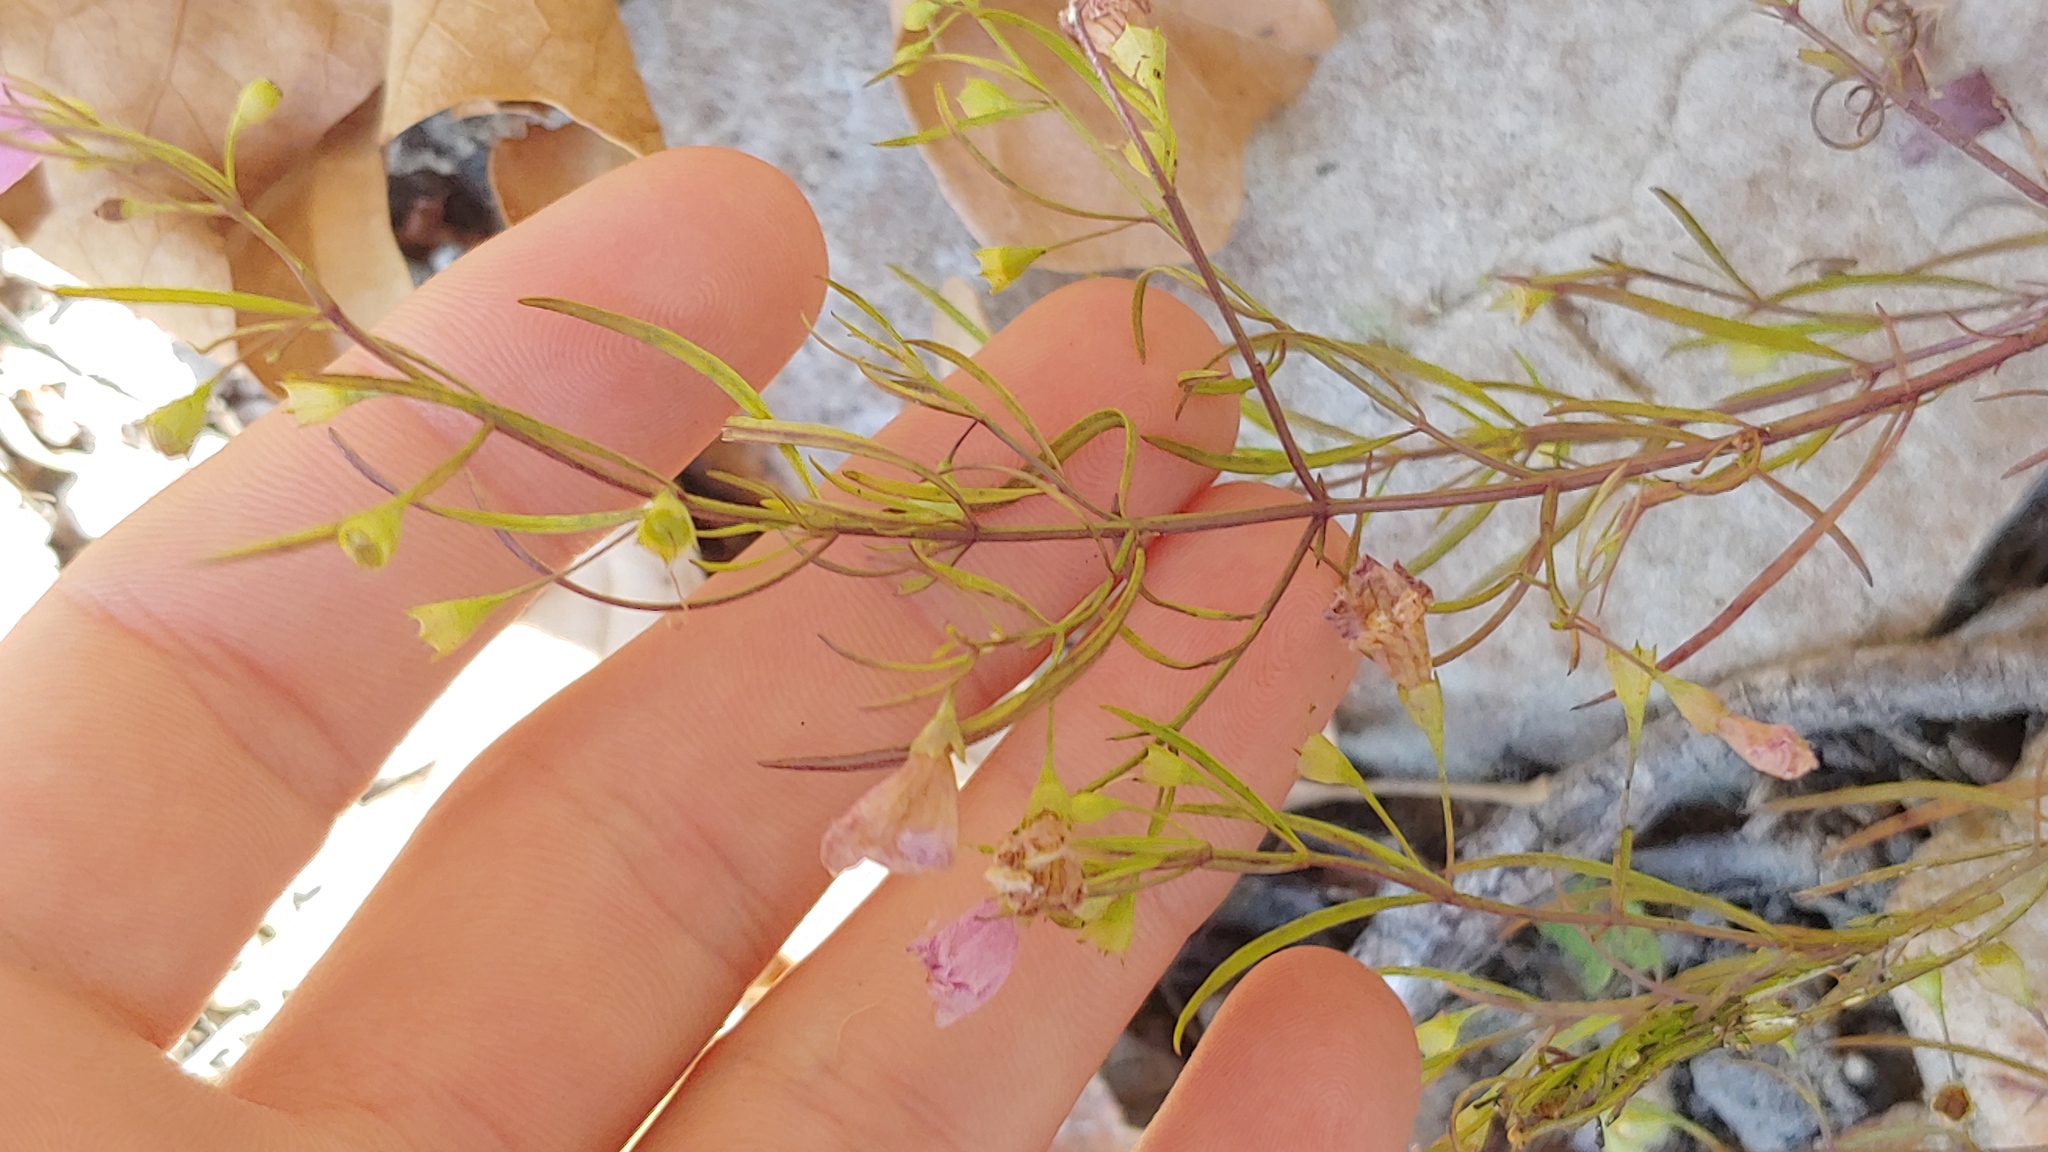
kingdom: Plantae
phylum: Tracheophyta
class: Magnoliopsida
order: Lamiales
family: Orobanchaceae
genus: Agalinis
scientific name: Agalinis tenuifolia
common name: Slender agalinis
